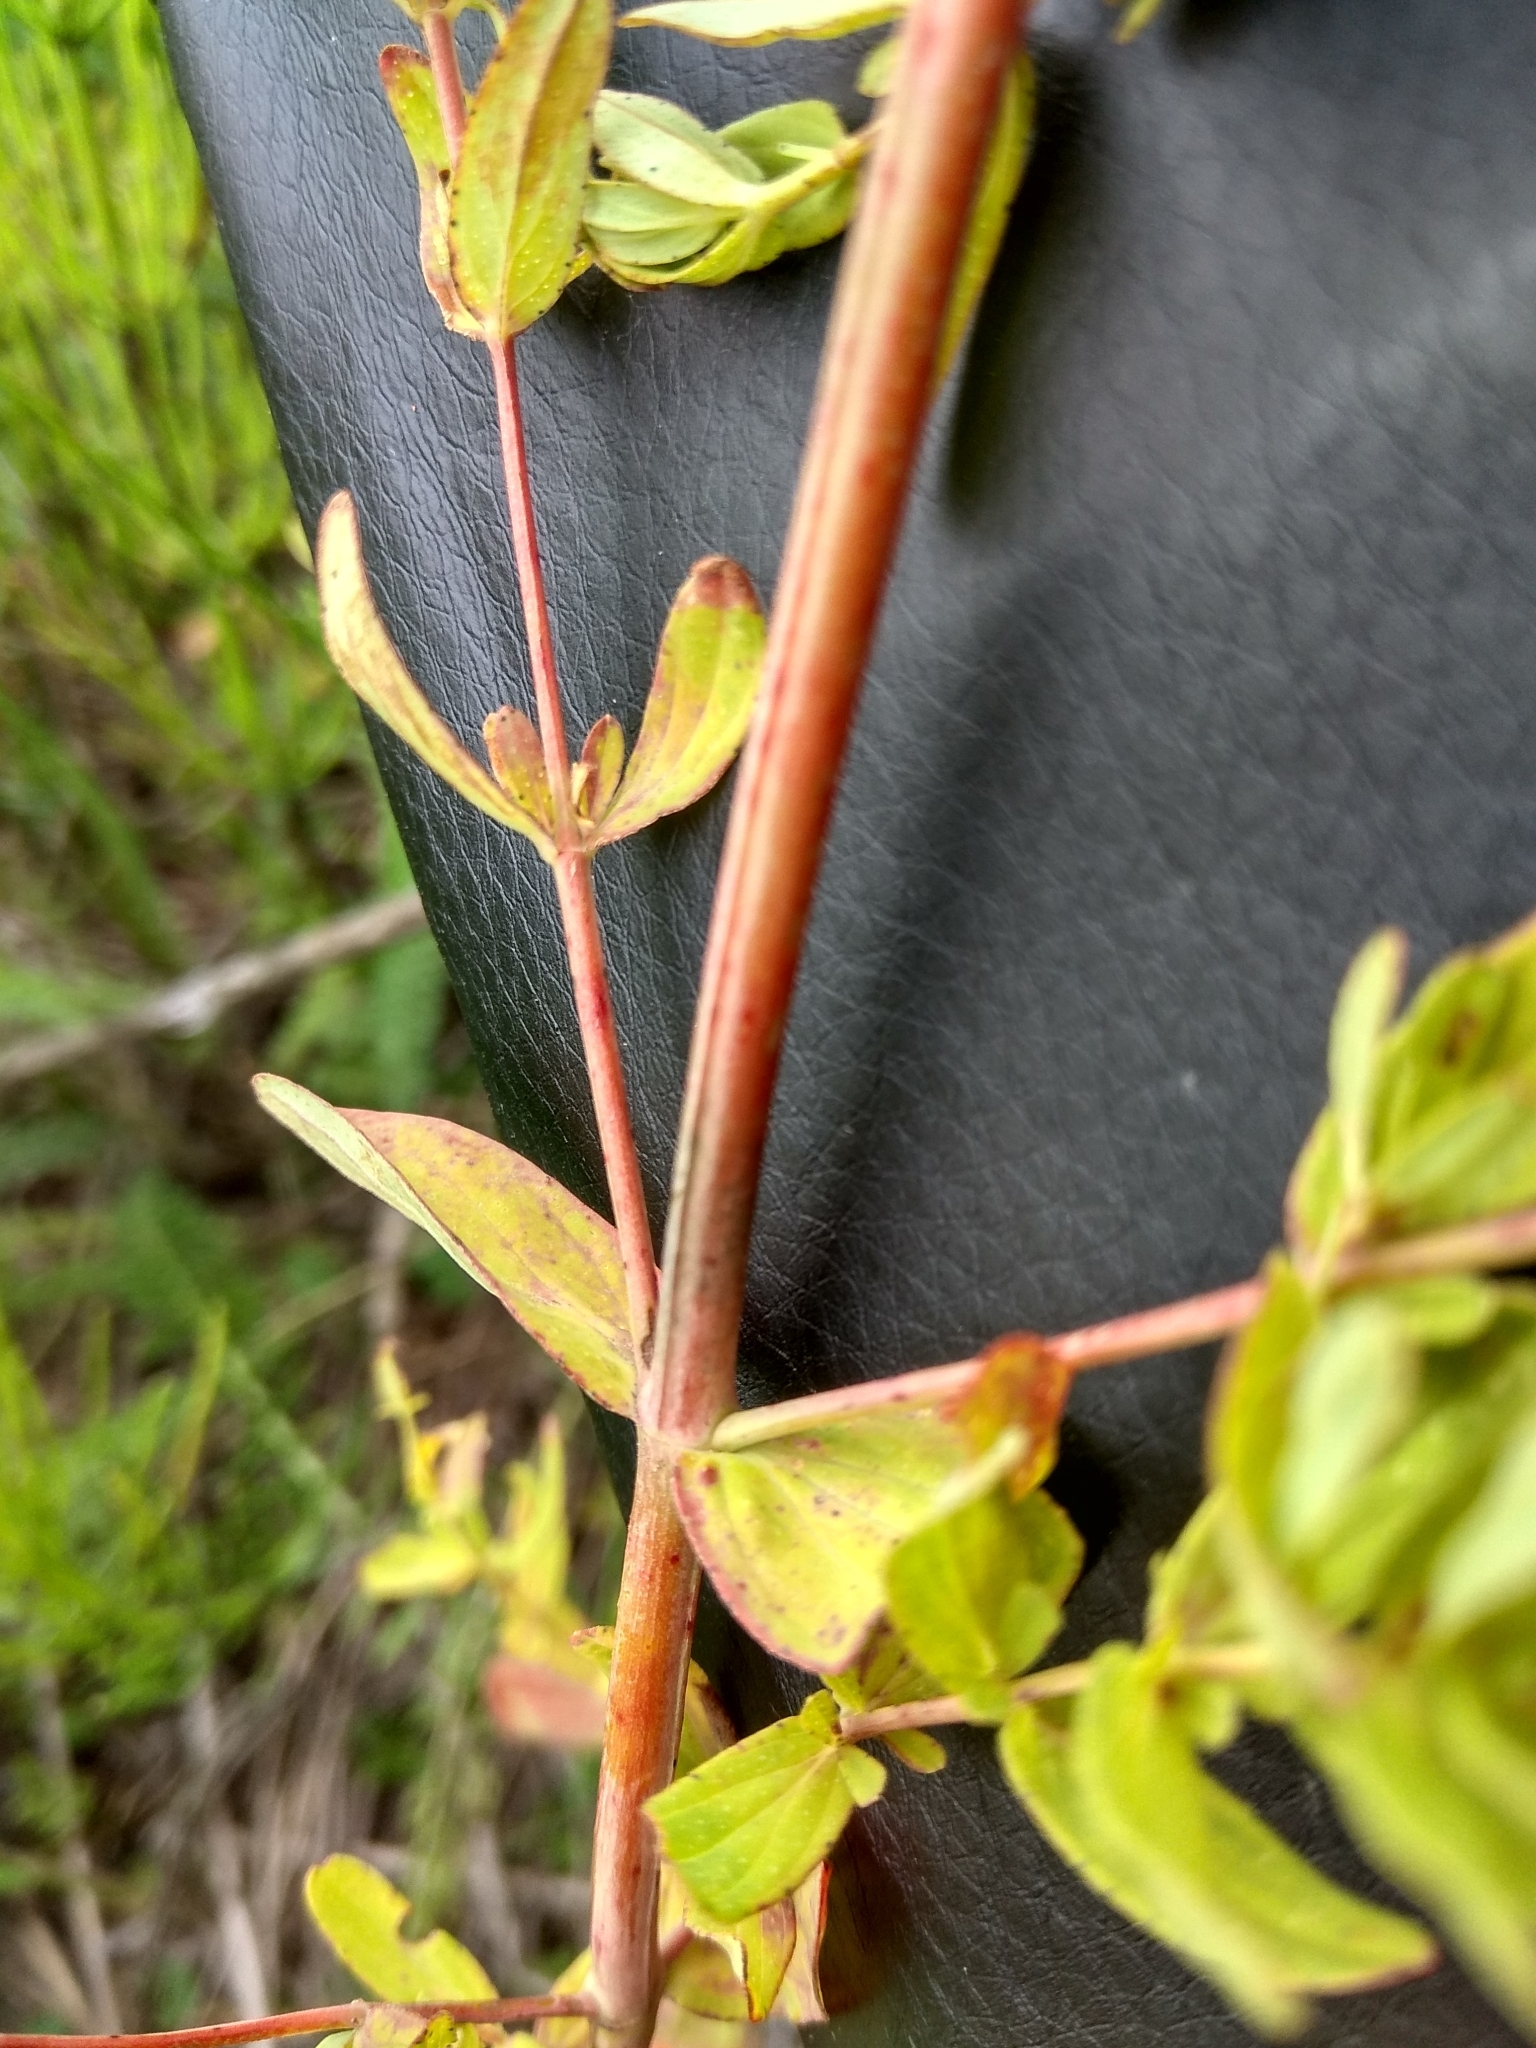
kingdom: Plantae
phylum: Tracheophyta
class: Magnoliopsida
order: Malpighiales
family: Hypericaceae
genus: Hypericum
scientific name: Hypericum perforatum
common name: Common st. johnswort
